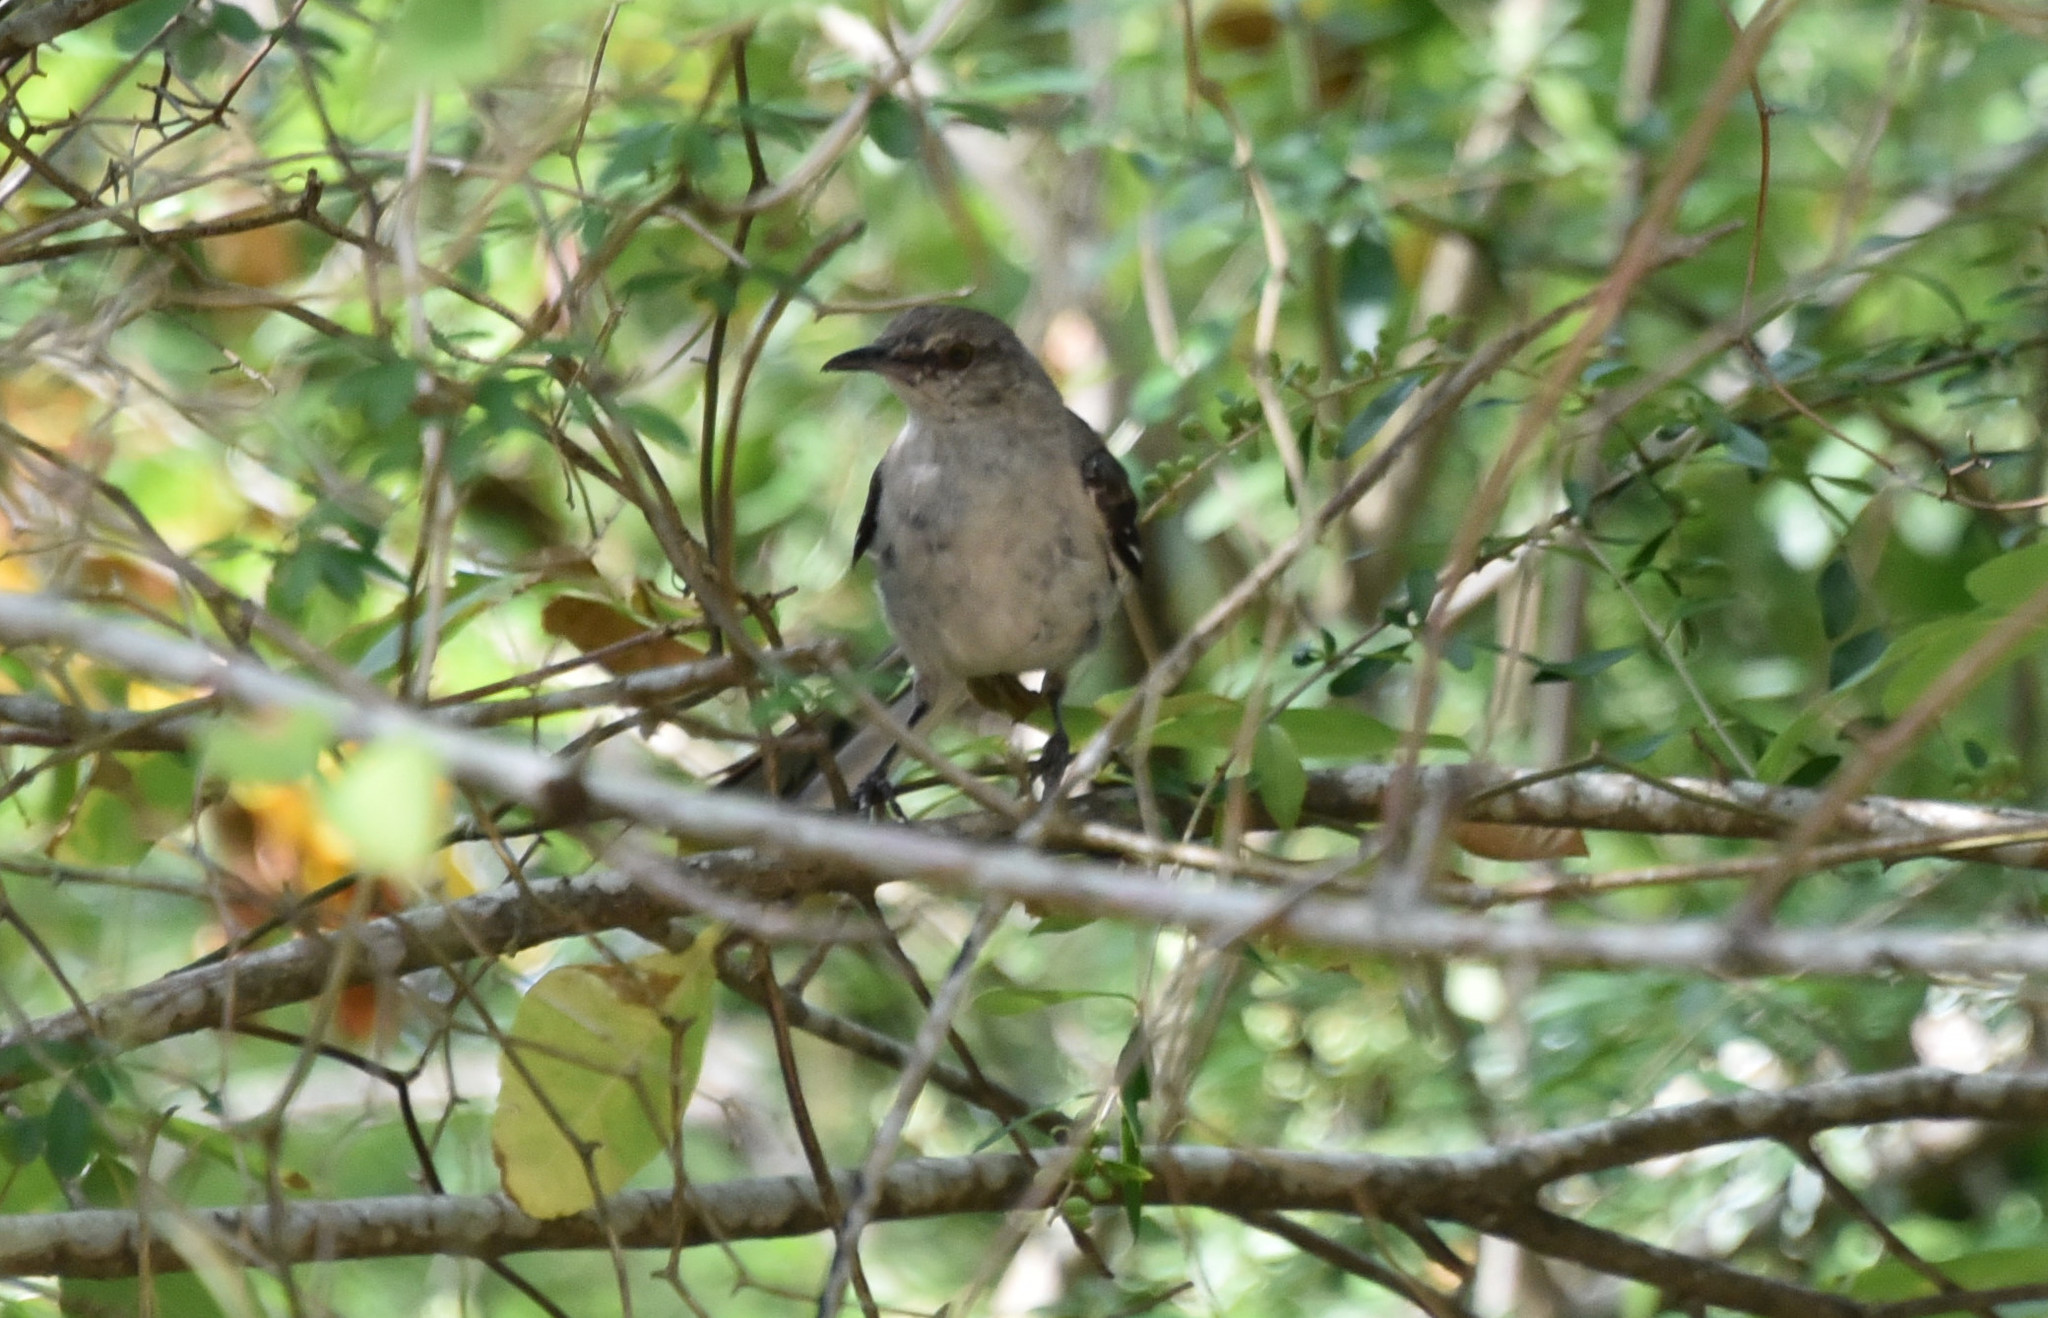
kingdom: Animalia
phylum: Chordata
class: Aves
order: Passeriformes
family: Mimidae
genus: Mimus
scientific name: Mimus polyglottos
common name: Northern mockingbird
